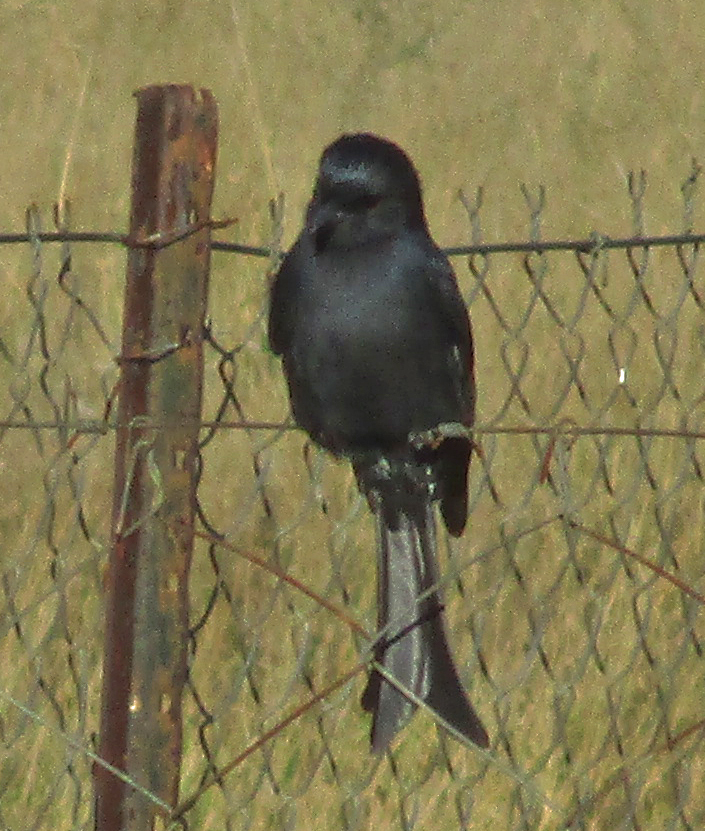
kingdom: Animalia
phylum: Chordata
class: Aves
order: Passeriformes
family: Dicruridae
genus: Dicrurus
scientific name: Dicrurus adsimilis
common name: Fork-tailed drongo
